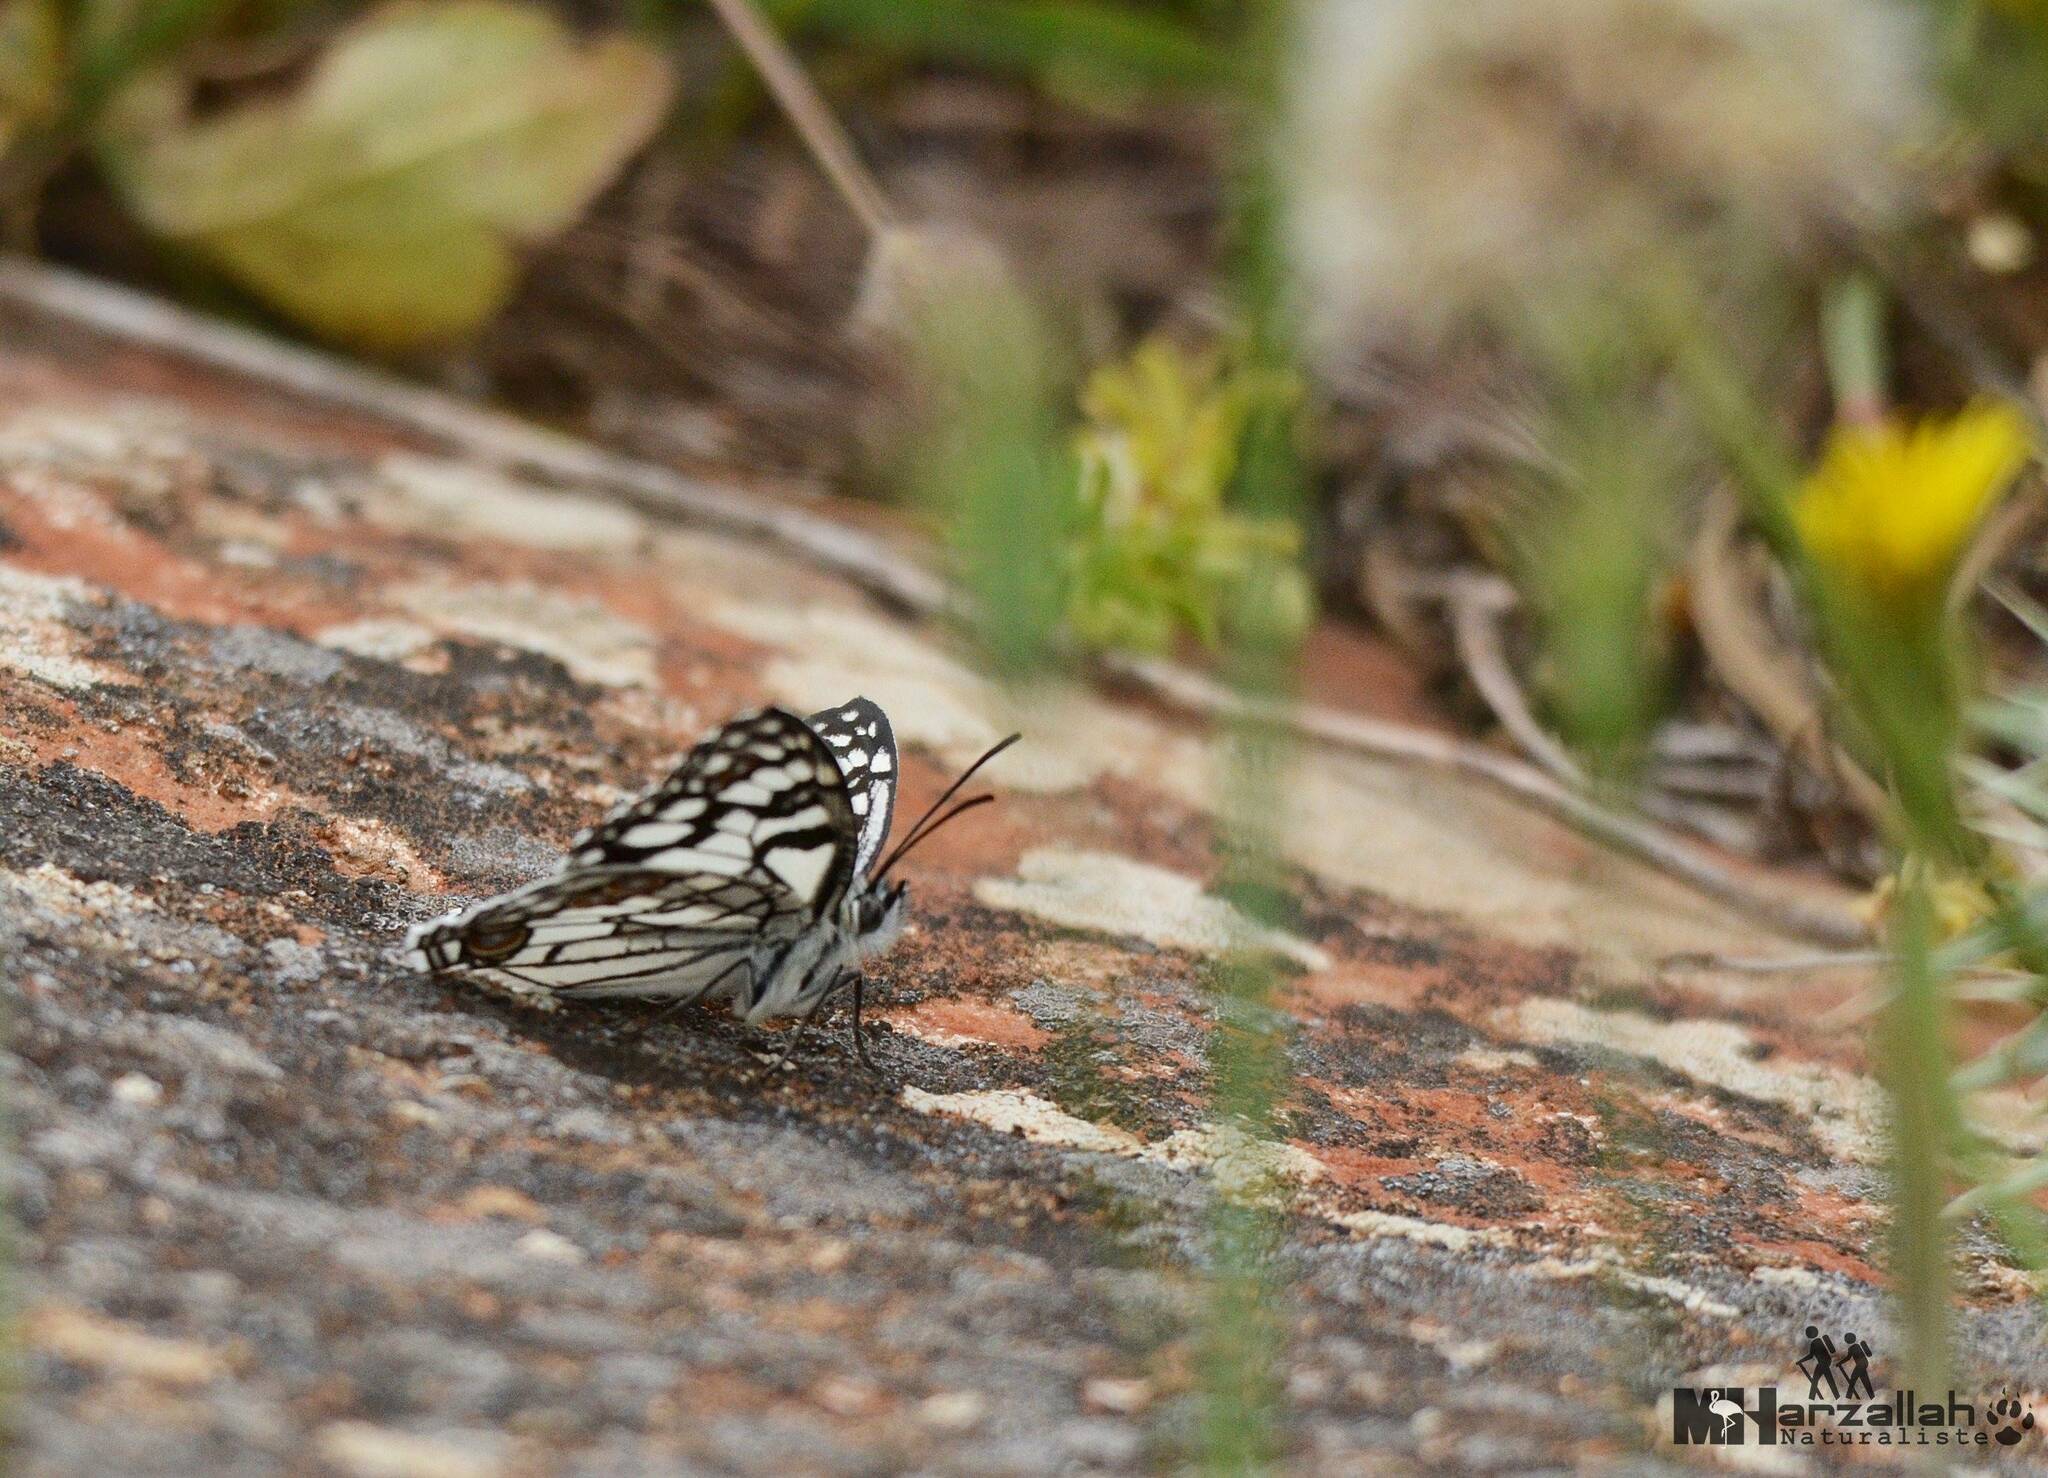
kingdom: Animalia
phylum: Arthropoda
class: Insecta
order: Lepidoptera
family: Nymphalidae
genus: Melanargia
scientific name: Melanargia ines
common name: Spanish marbled white
